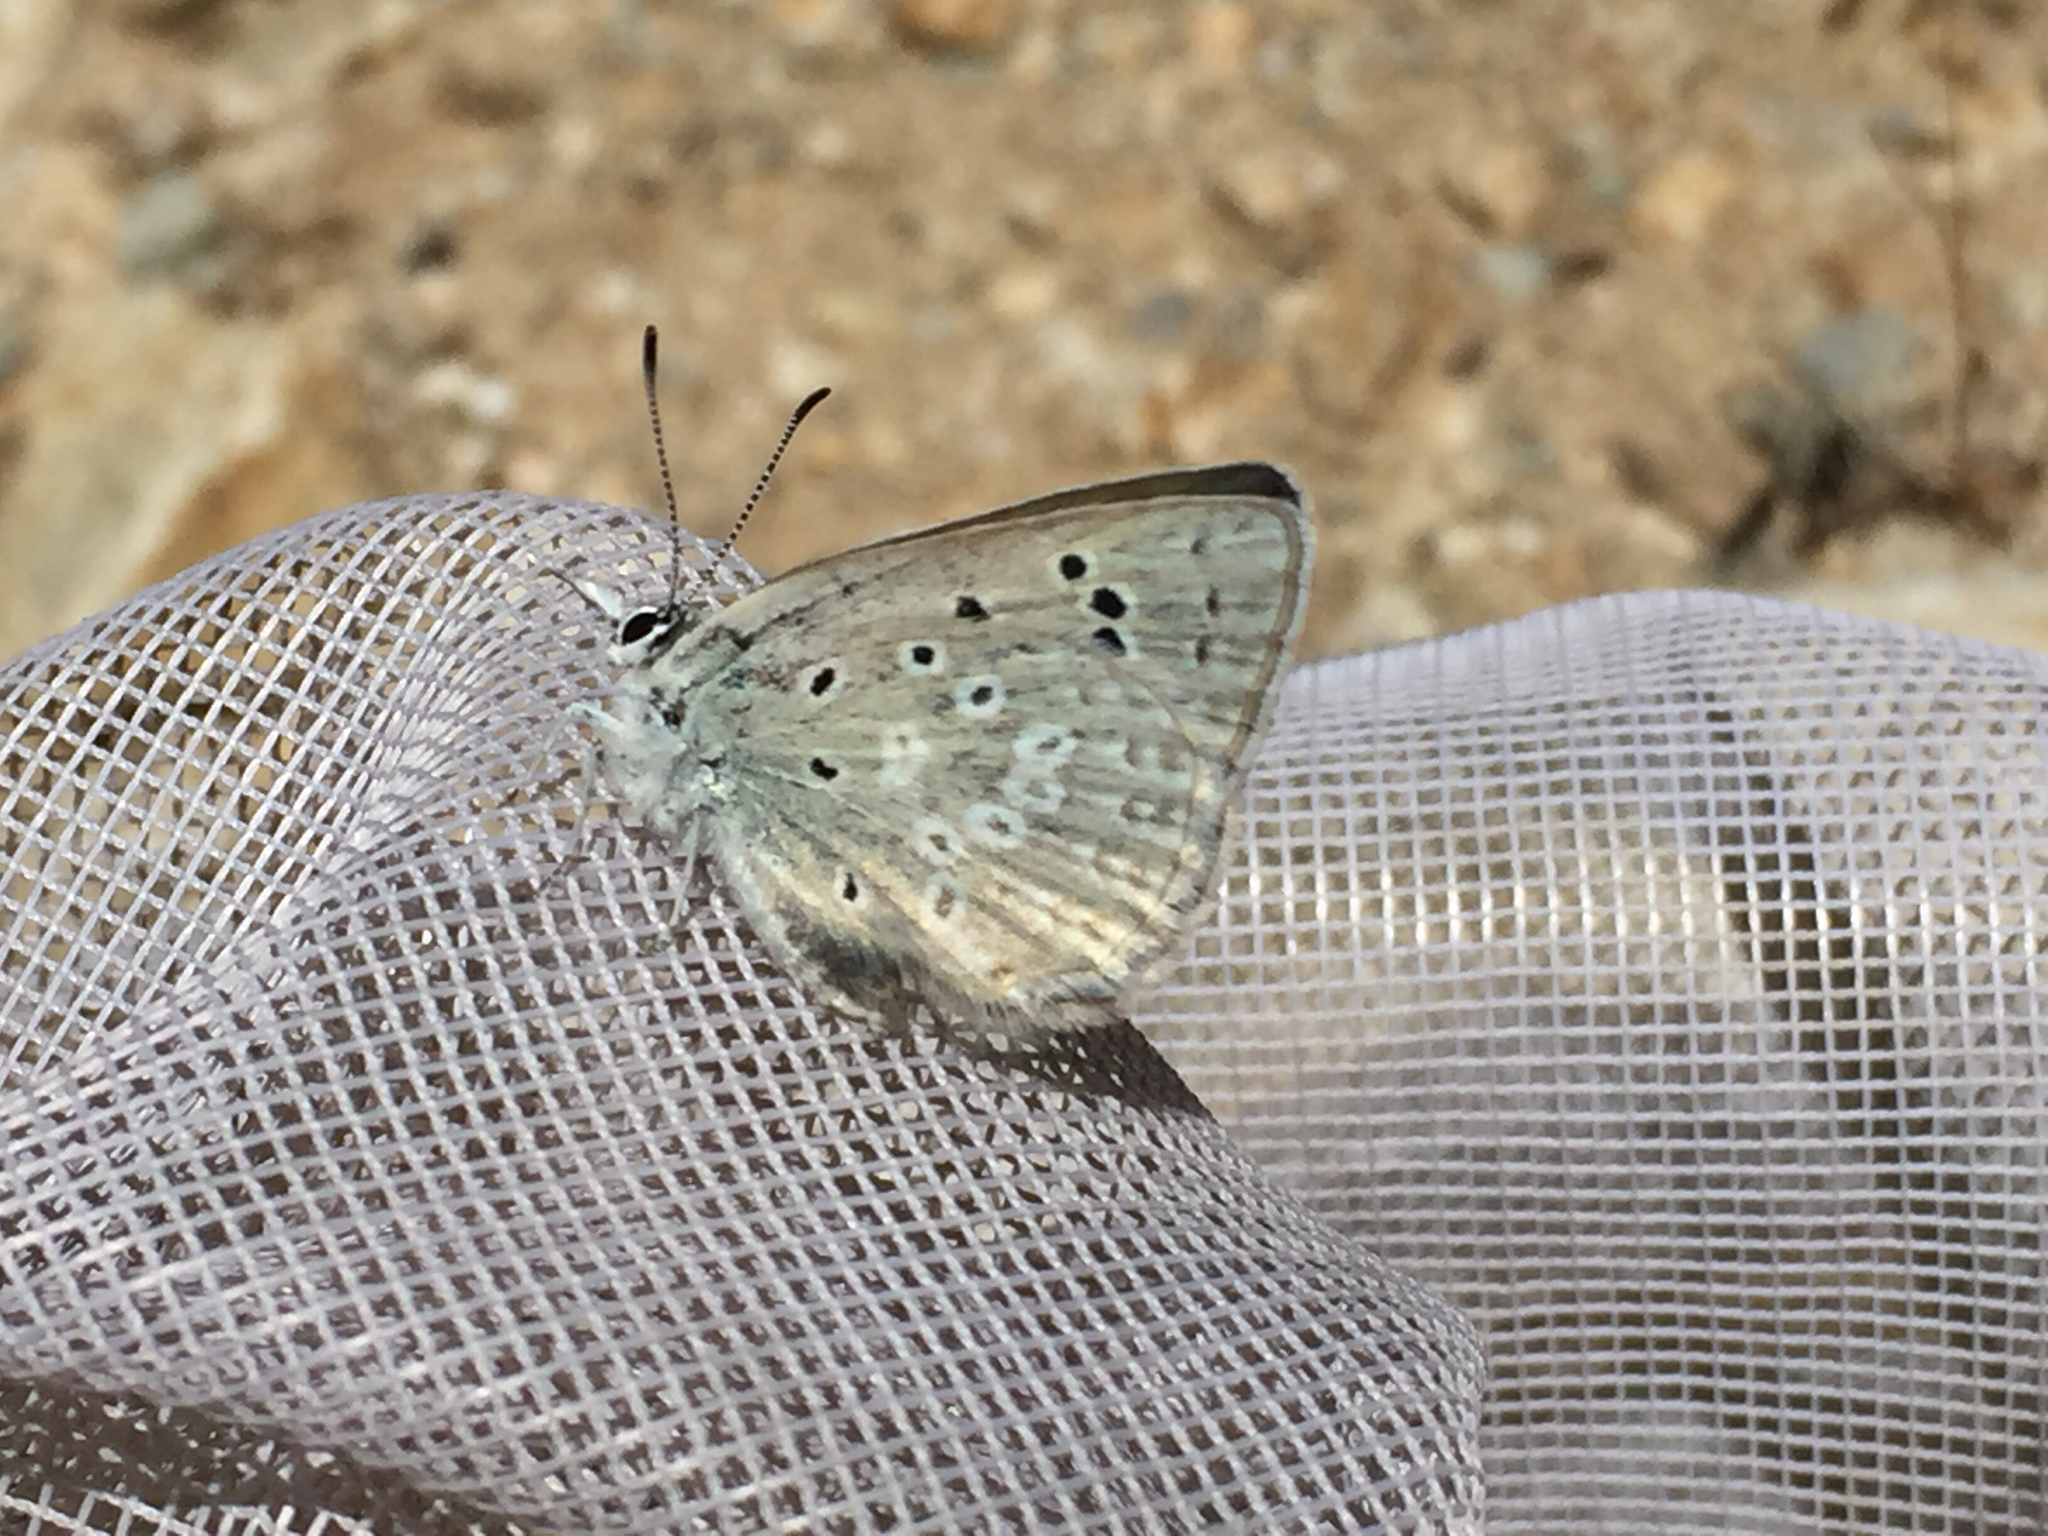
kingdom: Animalia
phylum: Arthropoda
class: Insecta
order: Lepidoptera
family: Lycaenidae
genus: Icaricia
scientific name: Icaricia icarioides
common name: Boisduval's blue
